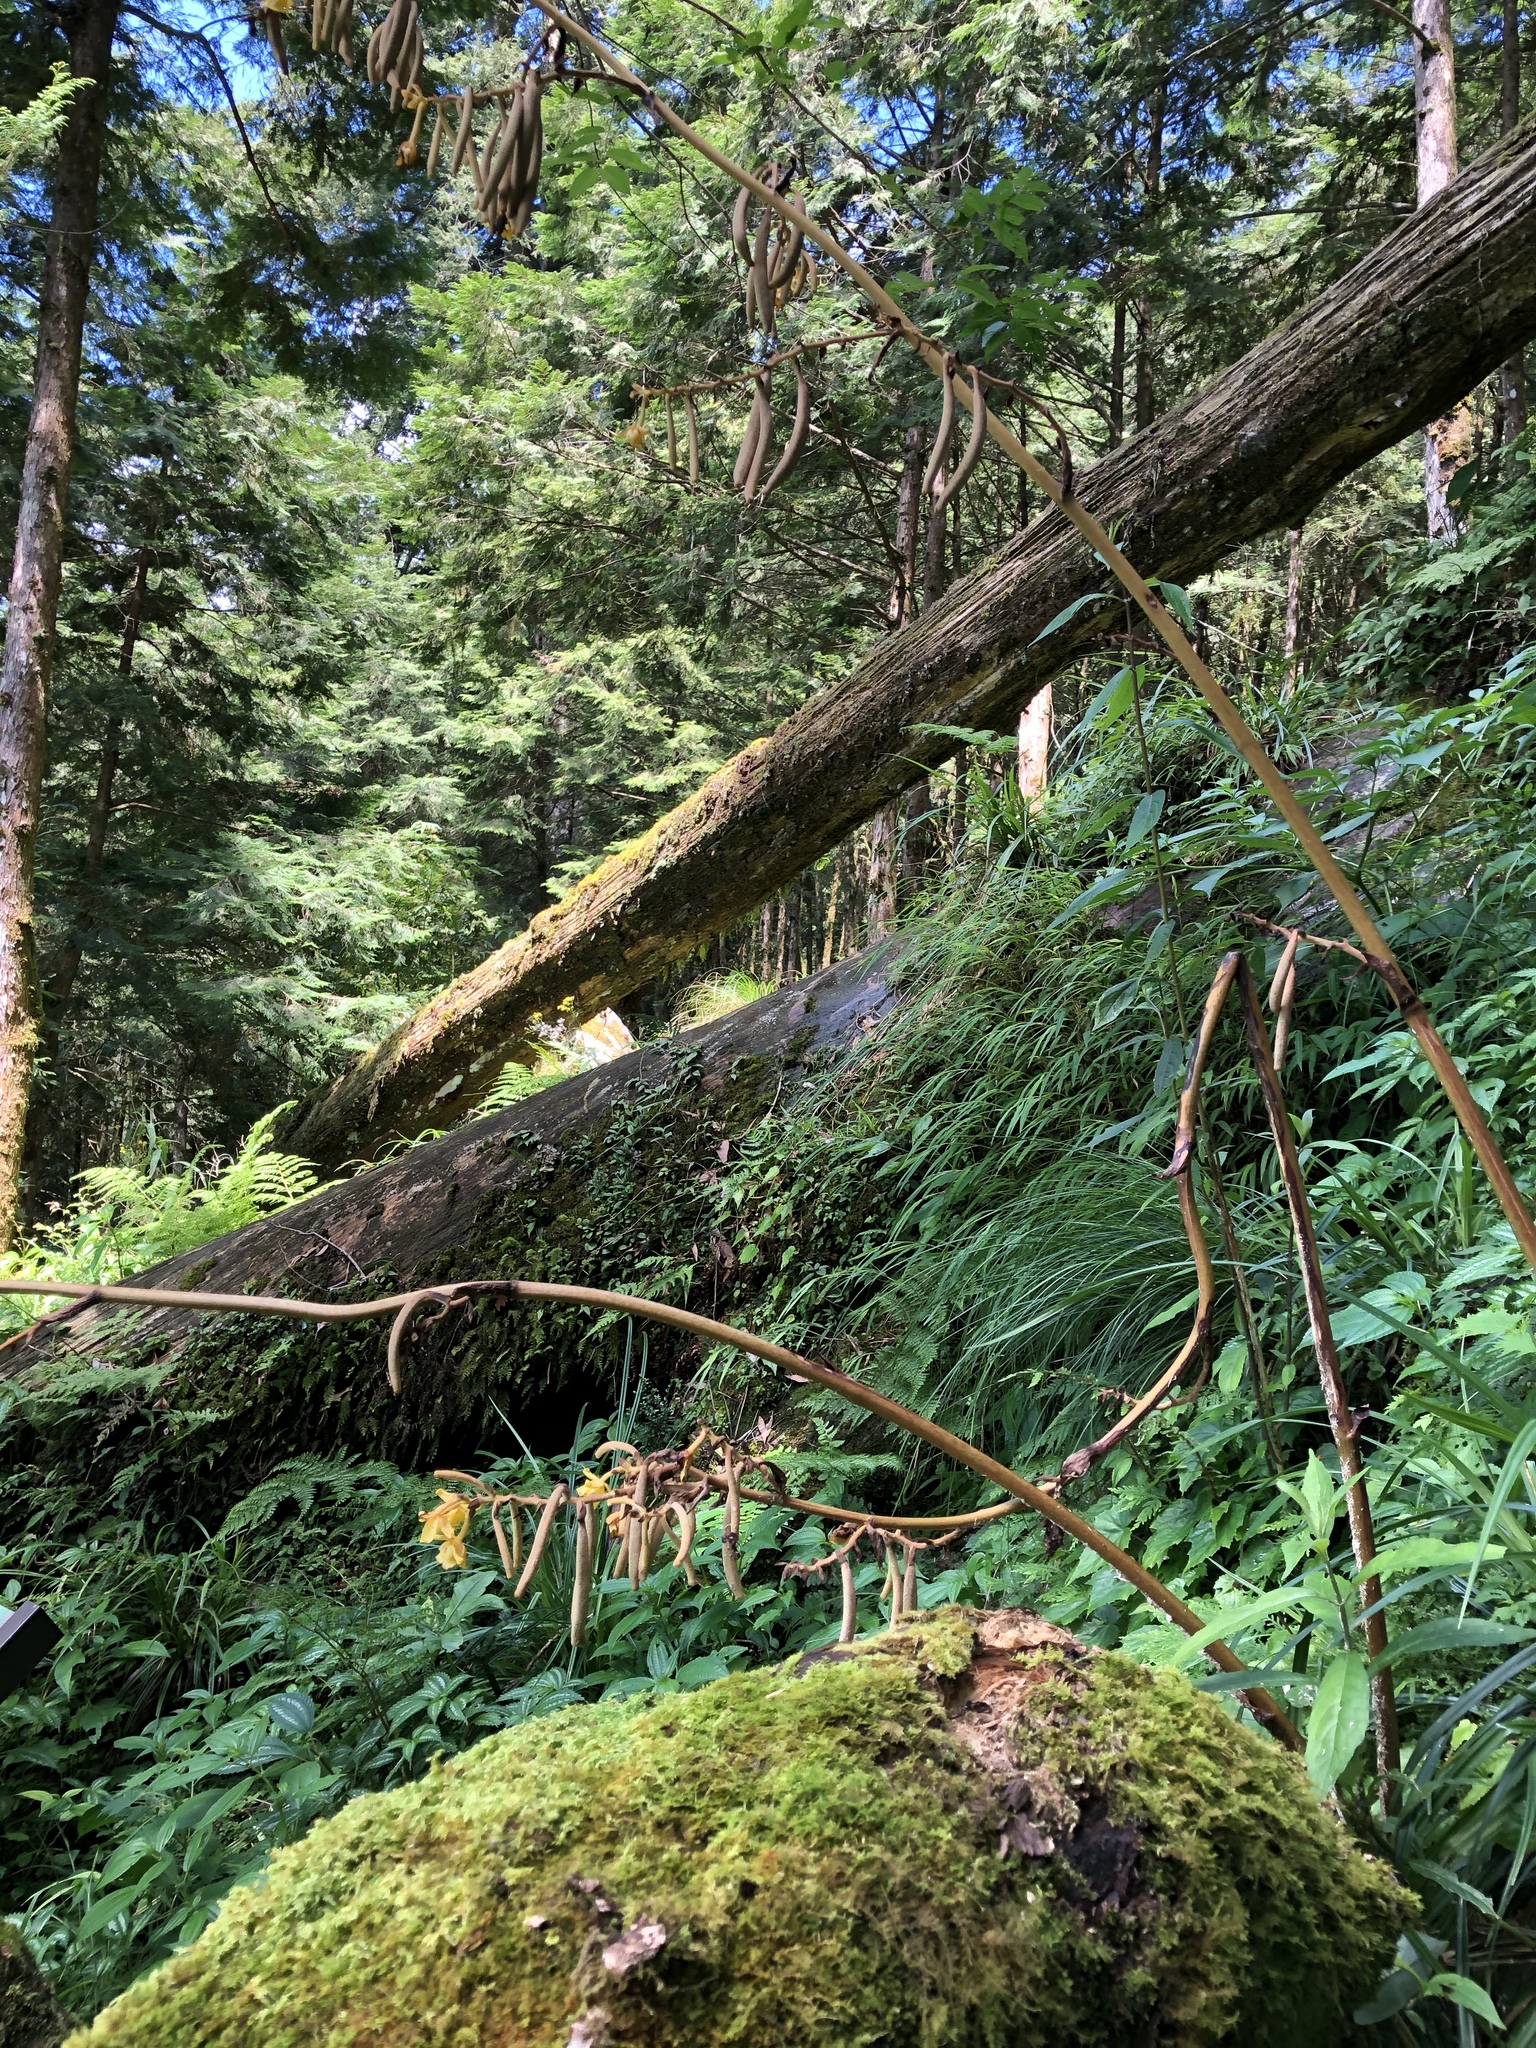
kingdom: Plantae
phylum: Tracheophyta
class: Liliopsida
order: Asparagales
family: Orchidaceae
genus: Cyrtosia
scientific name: Cyrtosia falconeri
